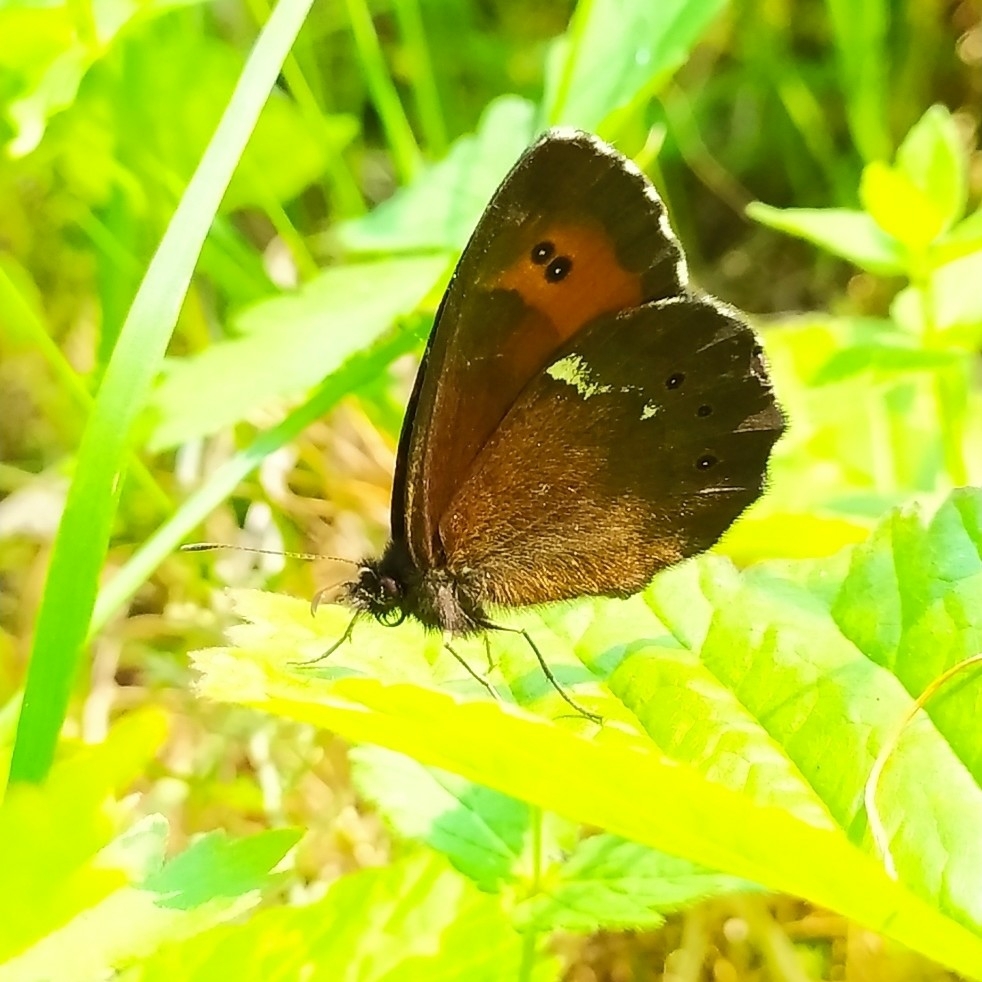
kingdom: Animalia
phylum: Arthropoda
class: Insecta
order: Lepidoptera
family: Nymphalidae
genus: Erebia
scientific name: Erebia ligea
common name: Arran brown
